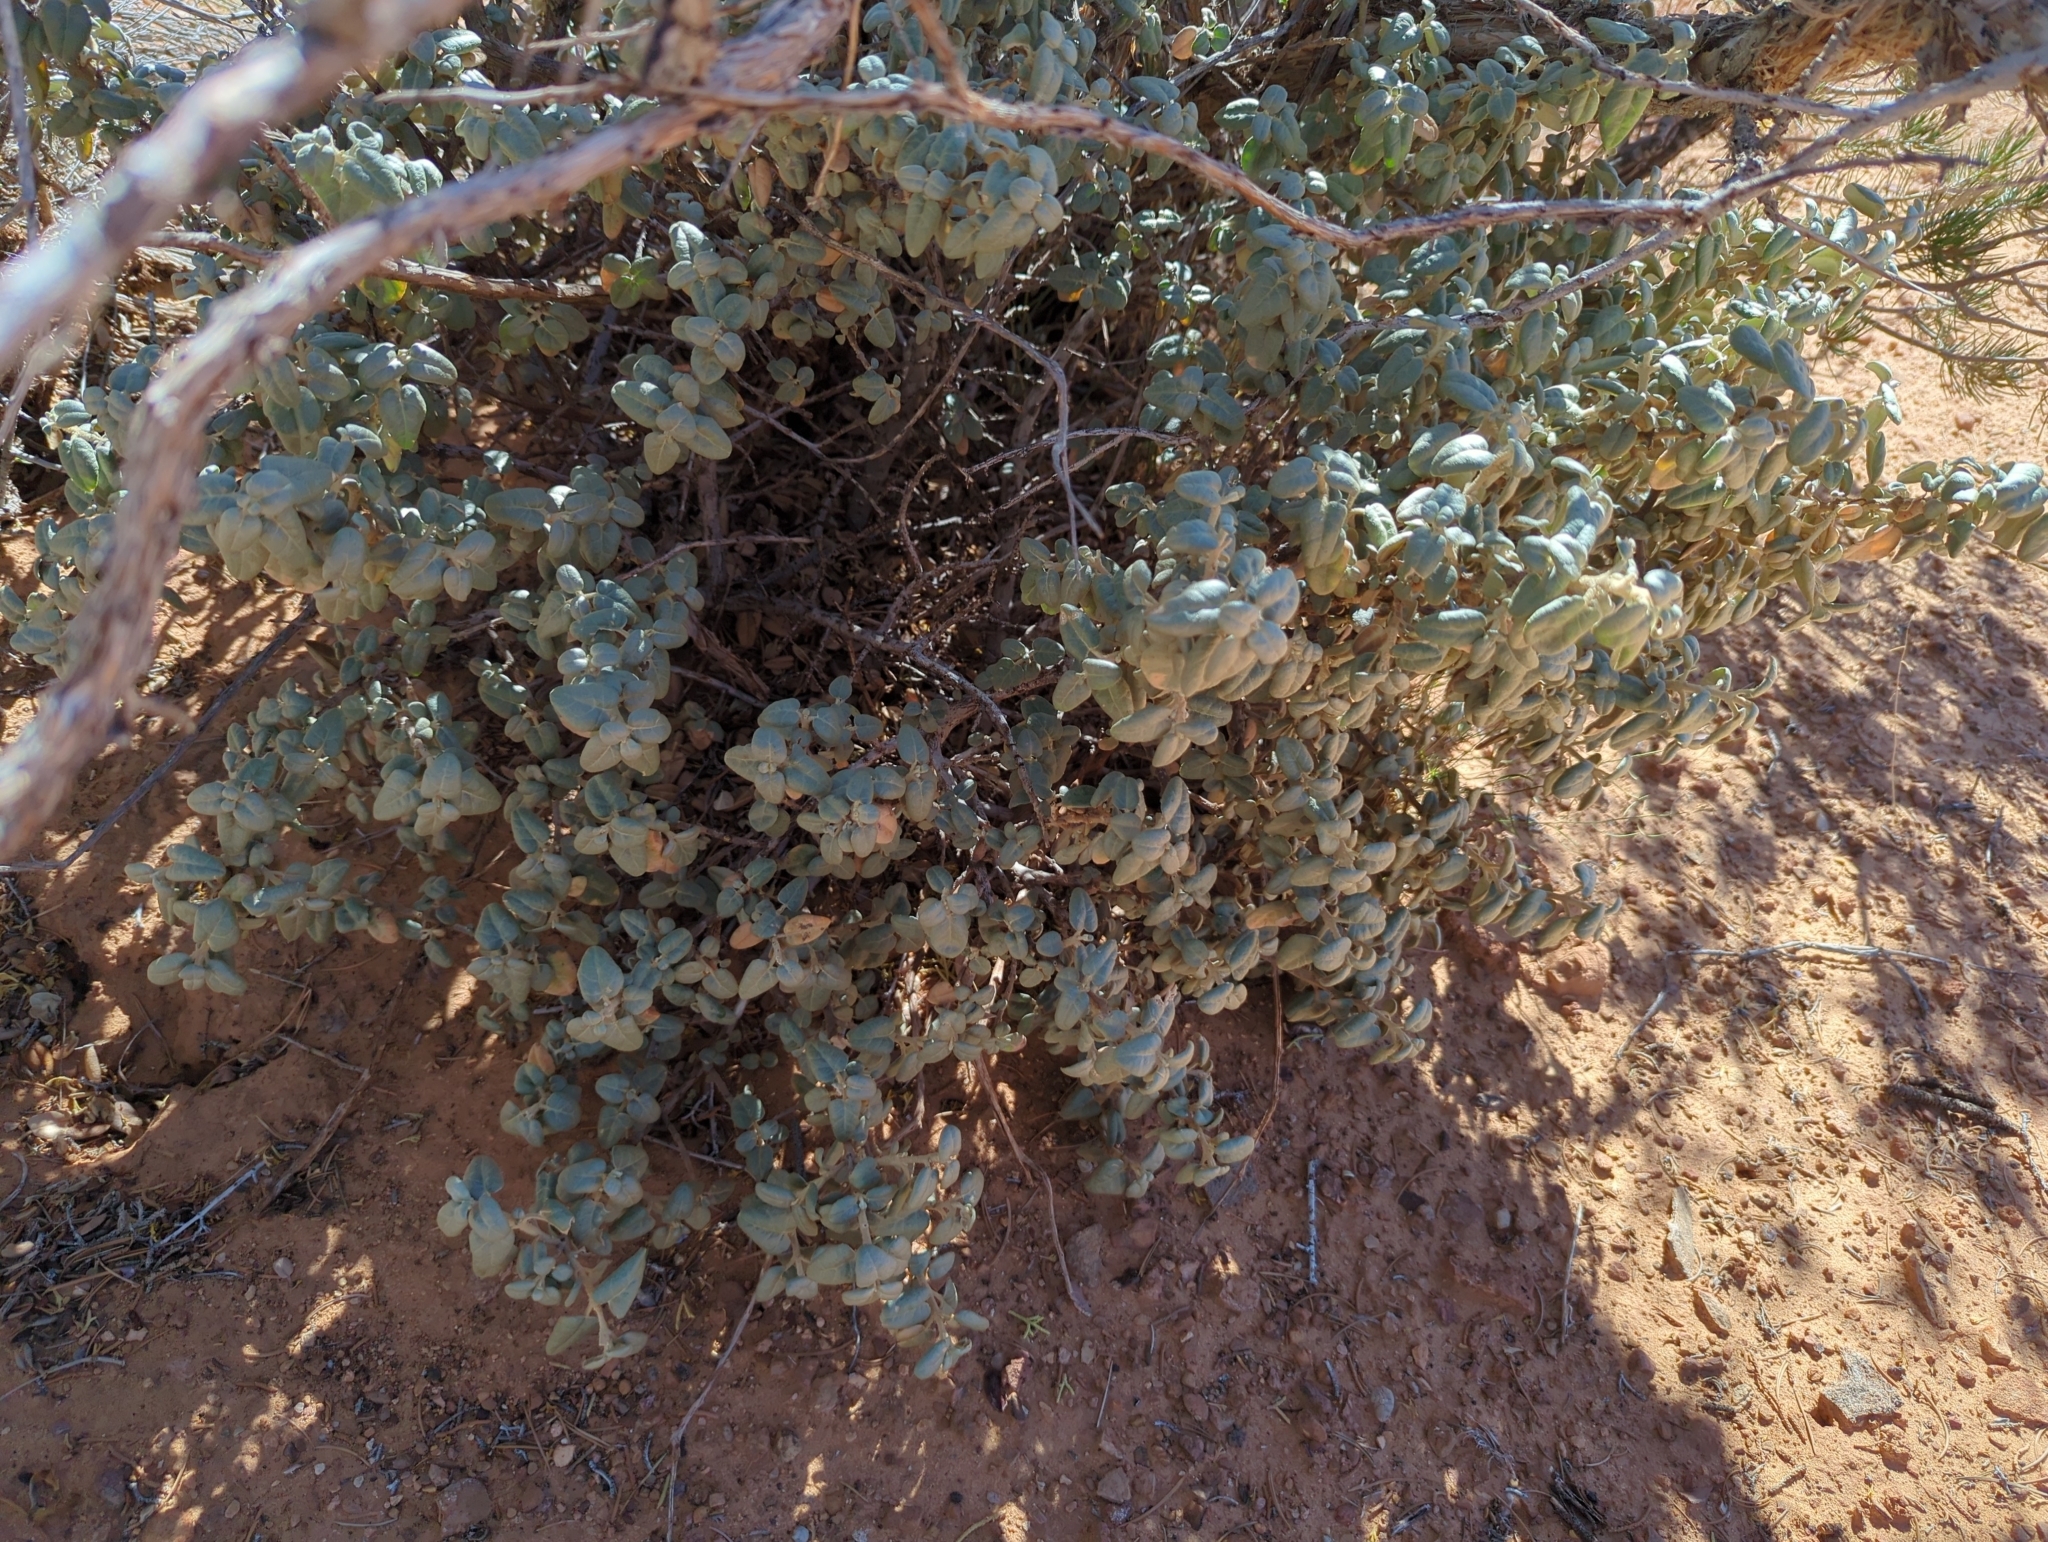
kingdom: Plantae
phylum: Tracheophyta
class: Magnoliopsida
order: Rosales
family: Elaeagnaceae
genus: Shepherdia
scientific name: Shepherdia rotundifolia
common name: Silverscale
